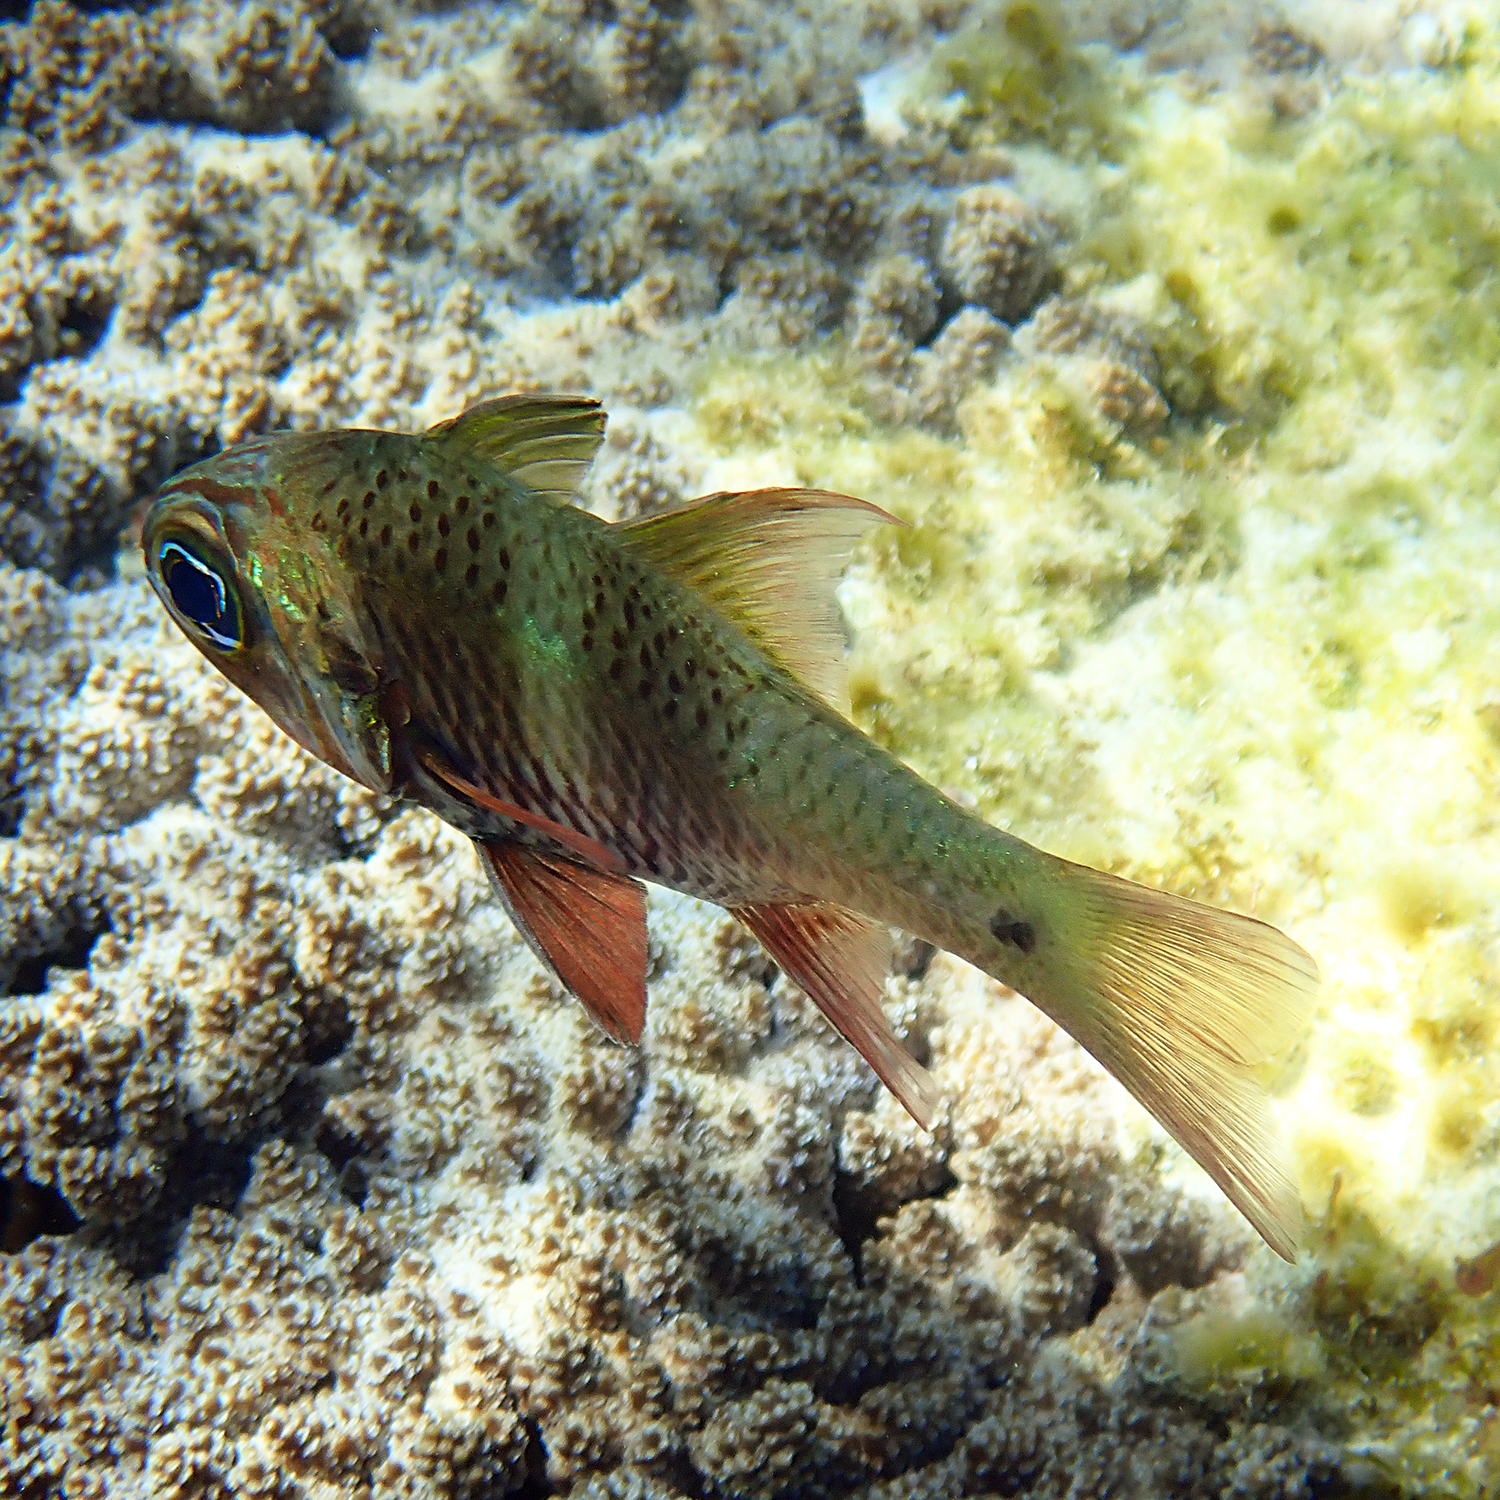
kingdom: Animalia
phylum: Chordata
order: Perciformes
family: Apogonidae
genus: Ostorhinchus
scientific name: Ostorhinchus norfolcensis
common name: Norfolk cardinalfish
